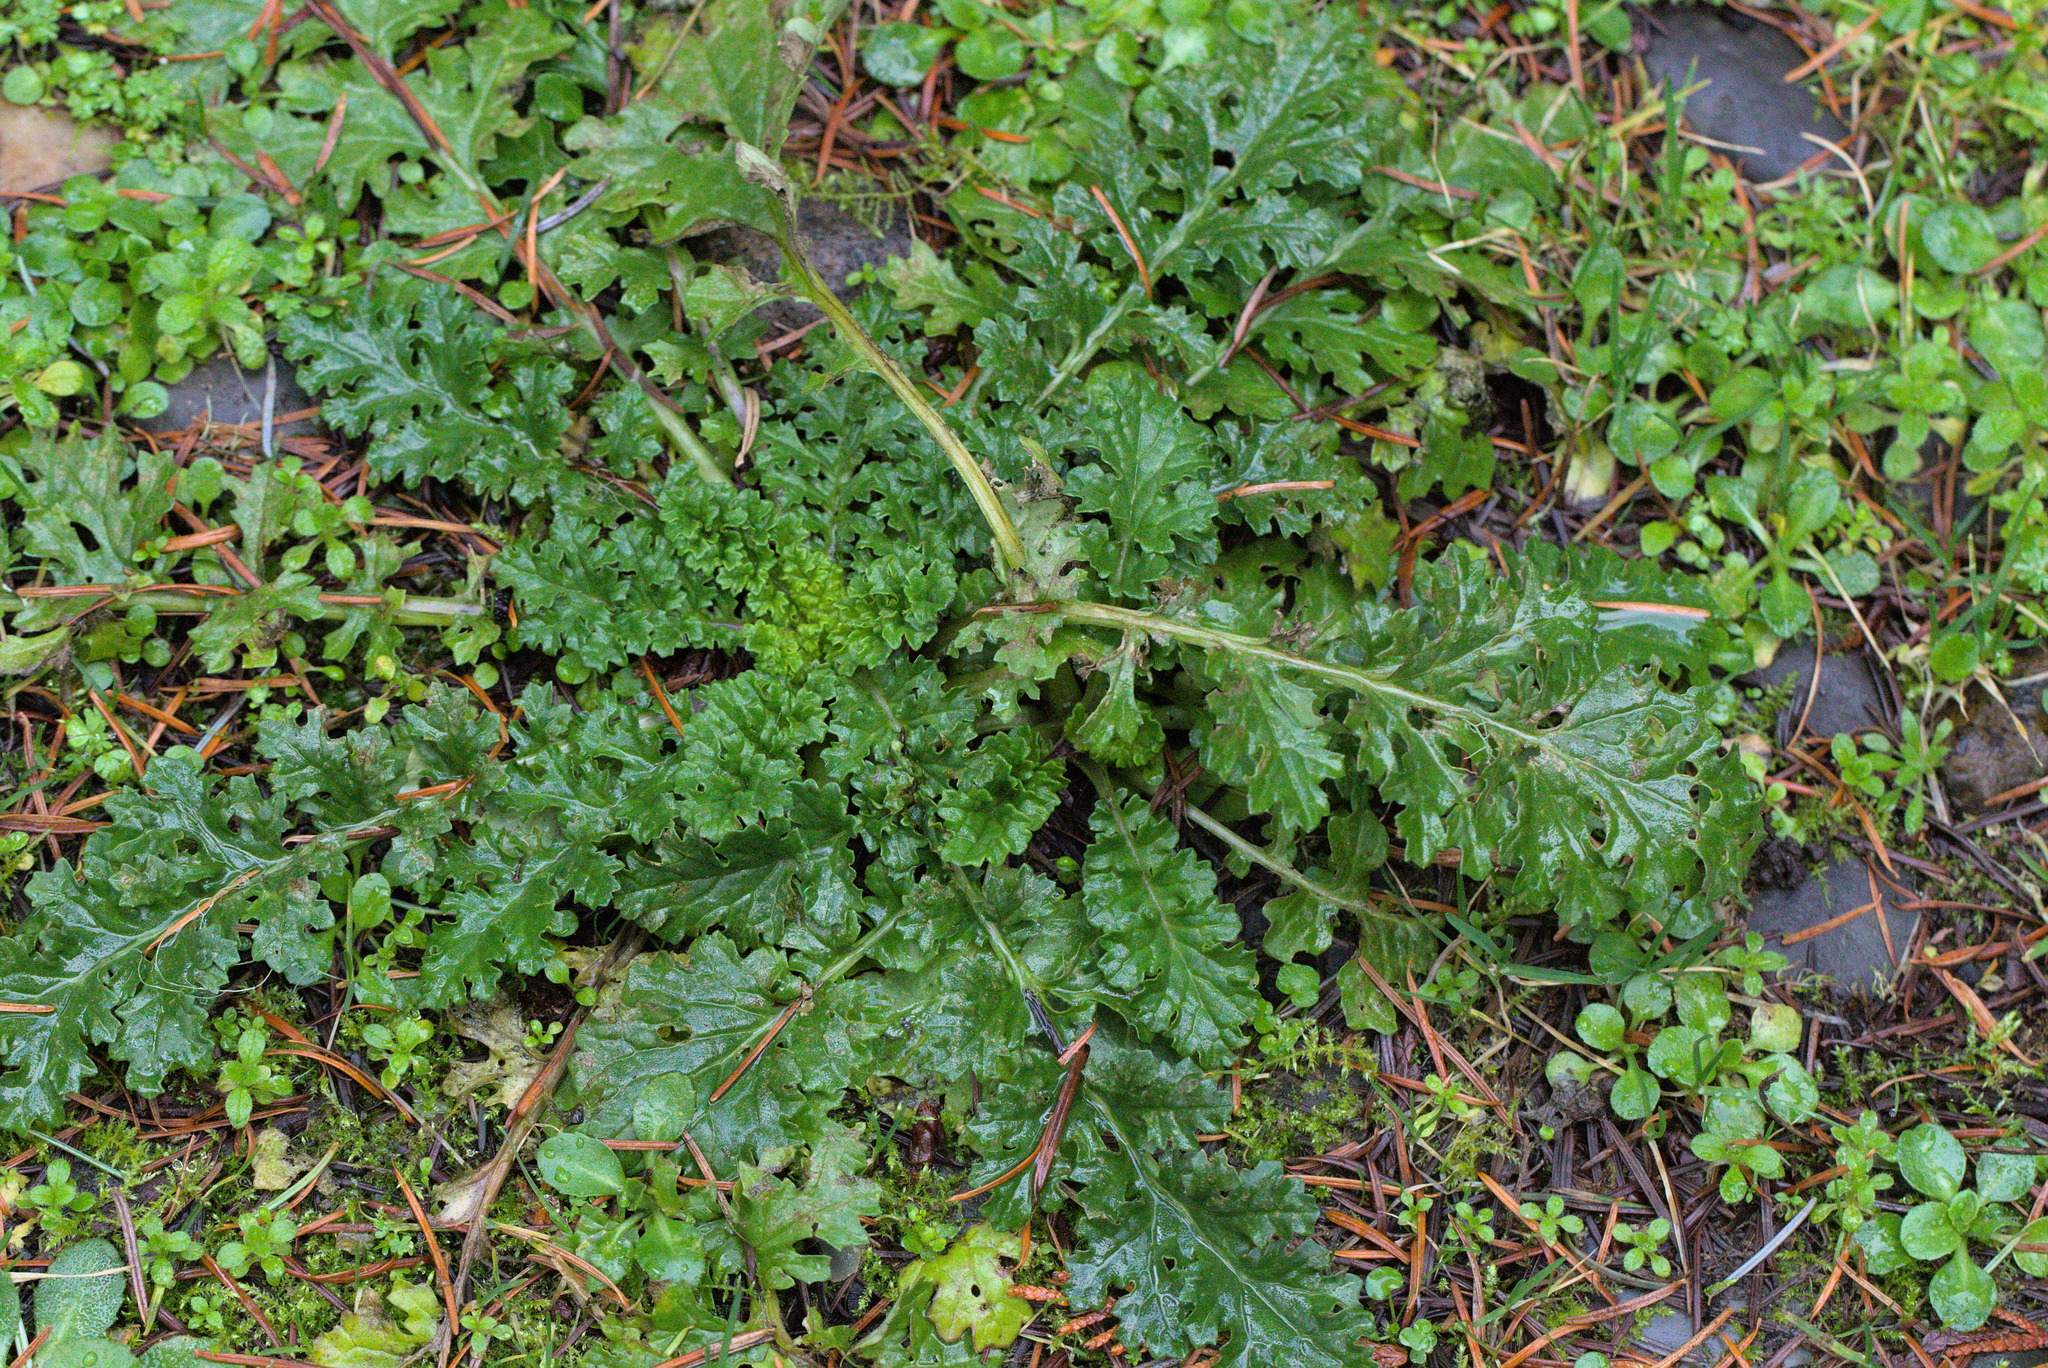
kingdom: Plantae
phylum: Tracheophyta
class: Magnoliopsida
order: Asterales
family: Asteraceae
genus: Jacobaea
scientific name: Jacobaea vulgaris
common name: Stinking willie
